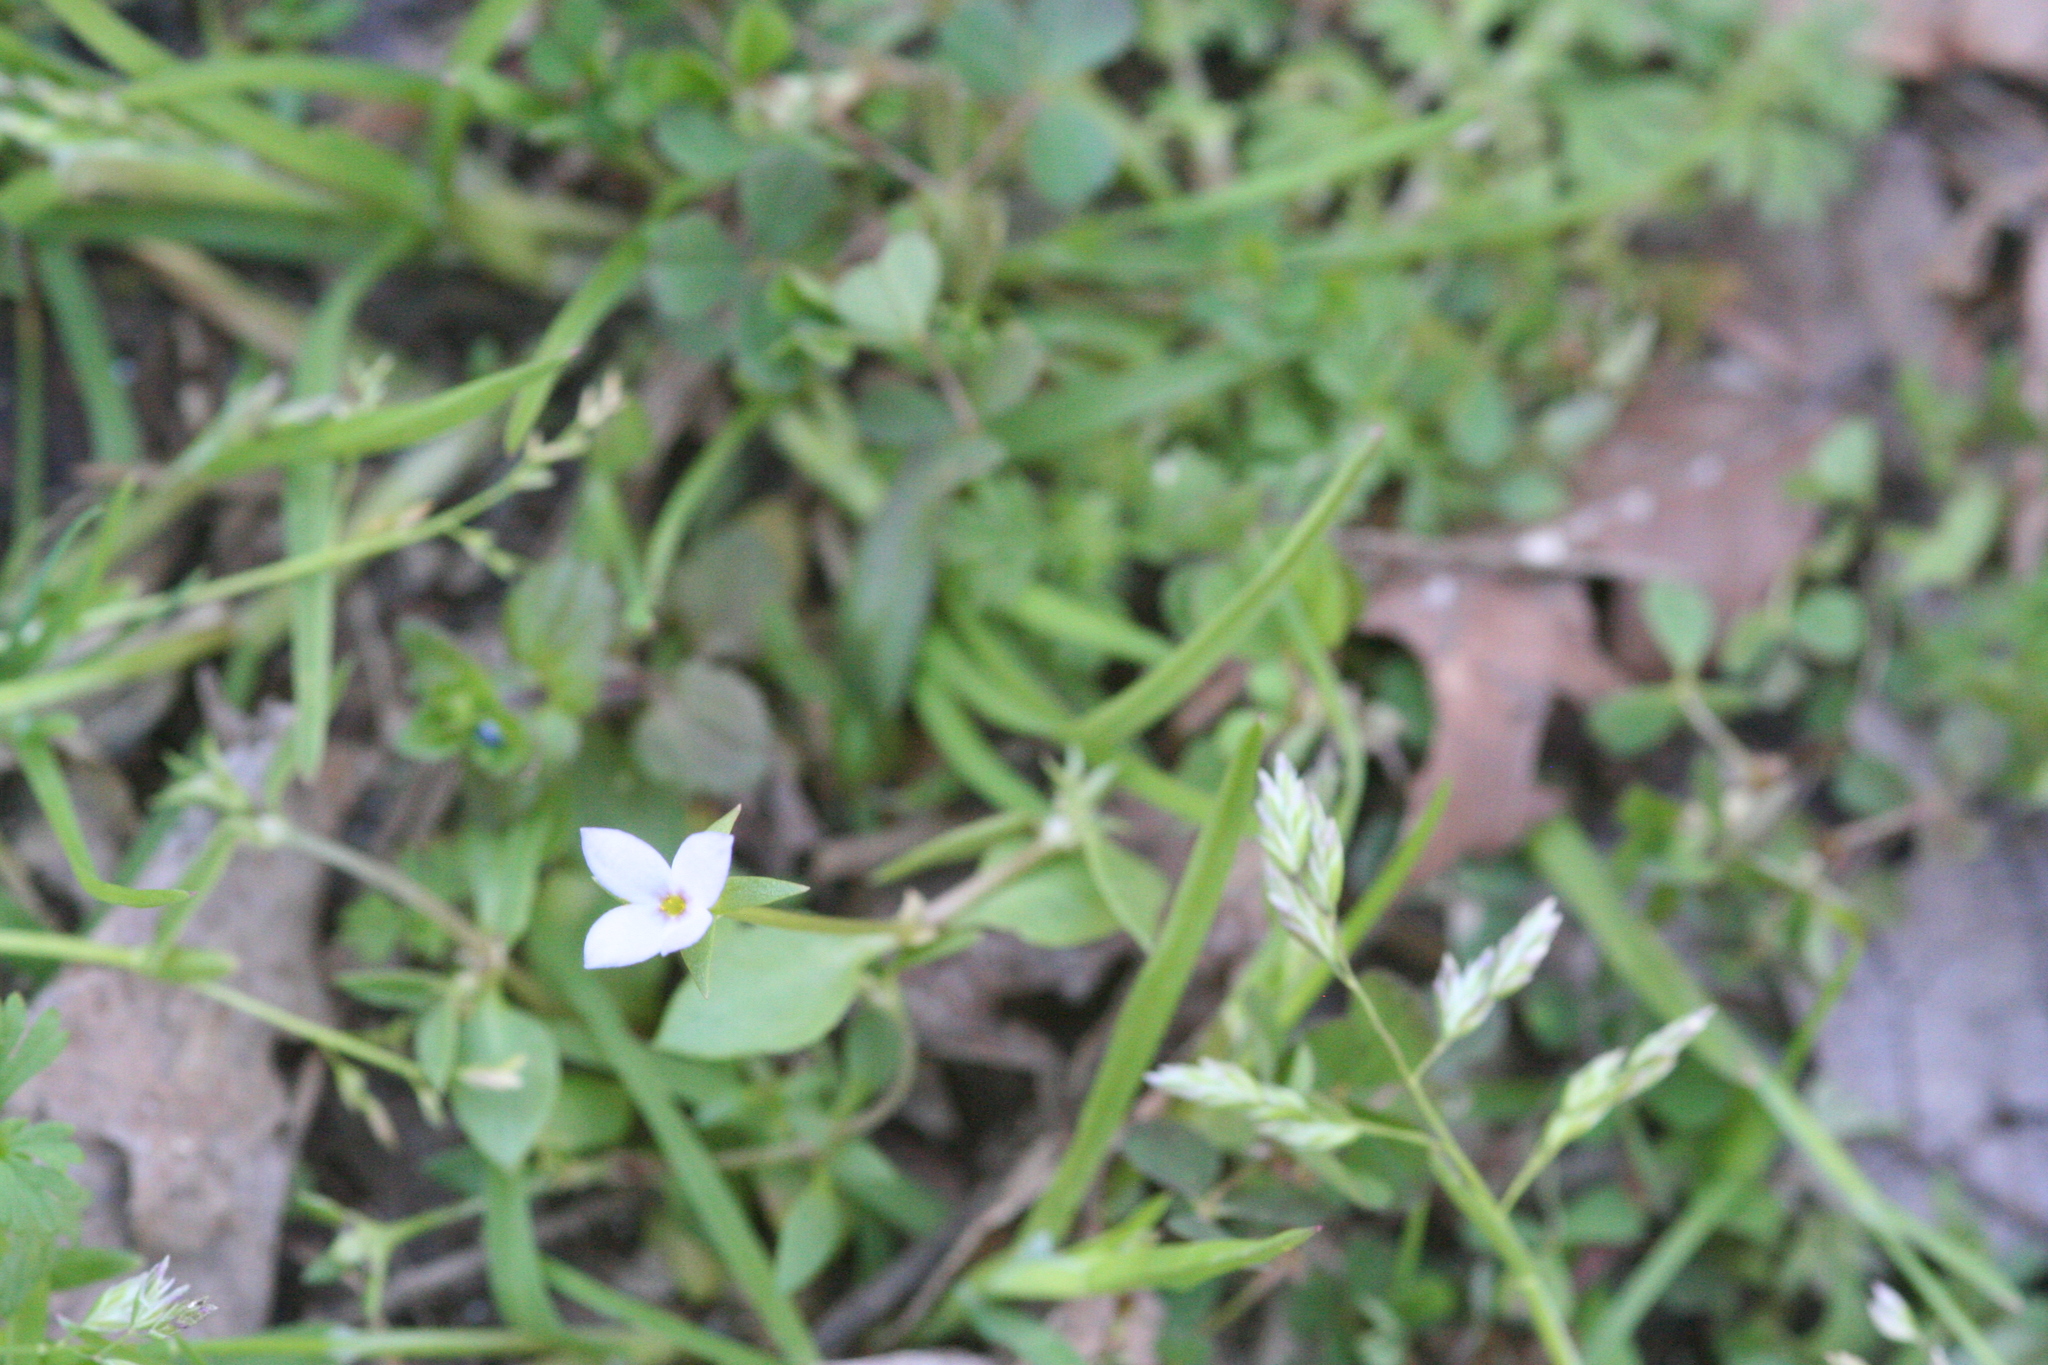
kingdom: Plantae
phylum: Tracheophyta
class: Magnoliopsida
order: Gentianales
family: Rubiaceae
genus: Houstonia
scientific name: Houstonia pusilla
